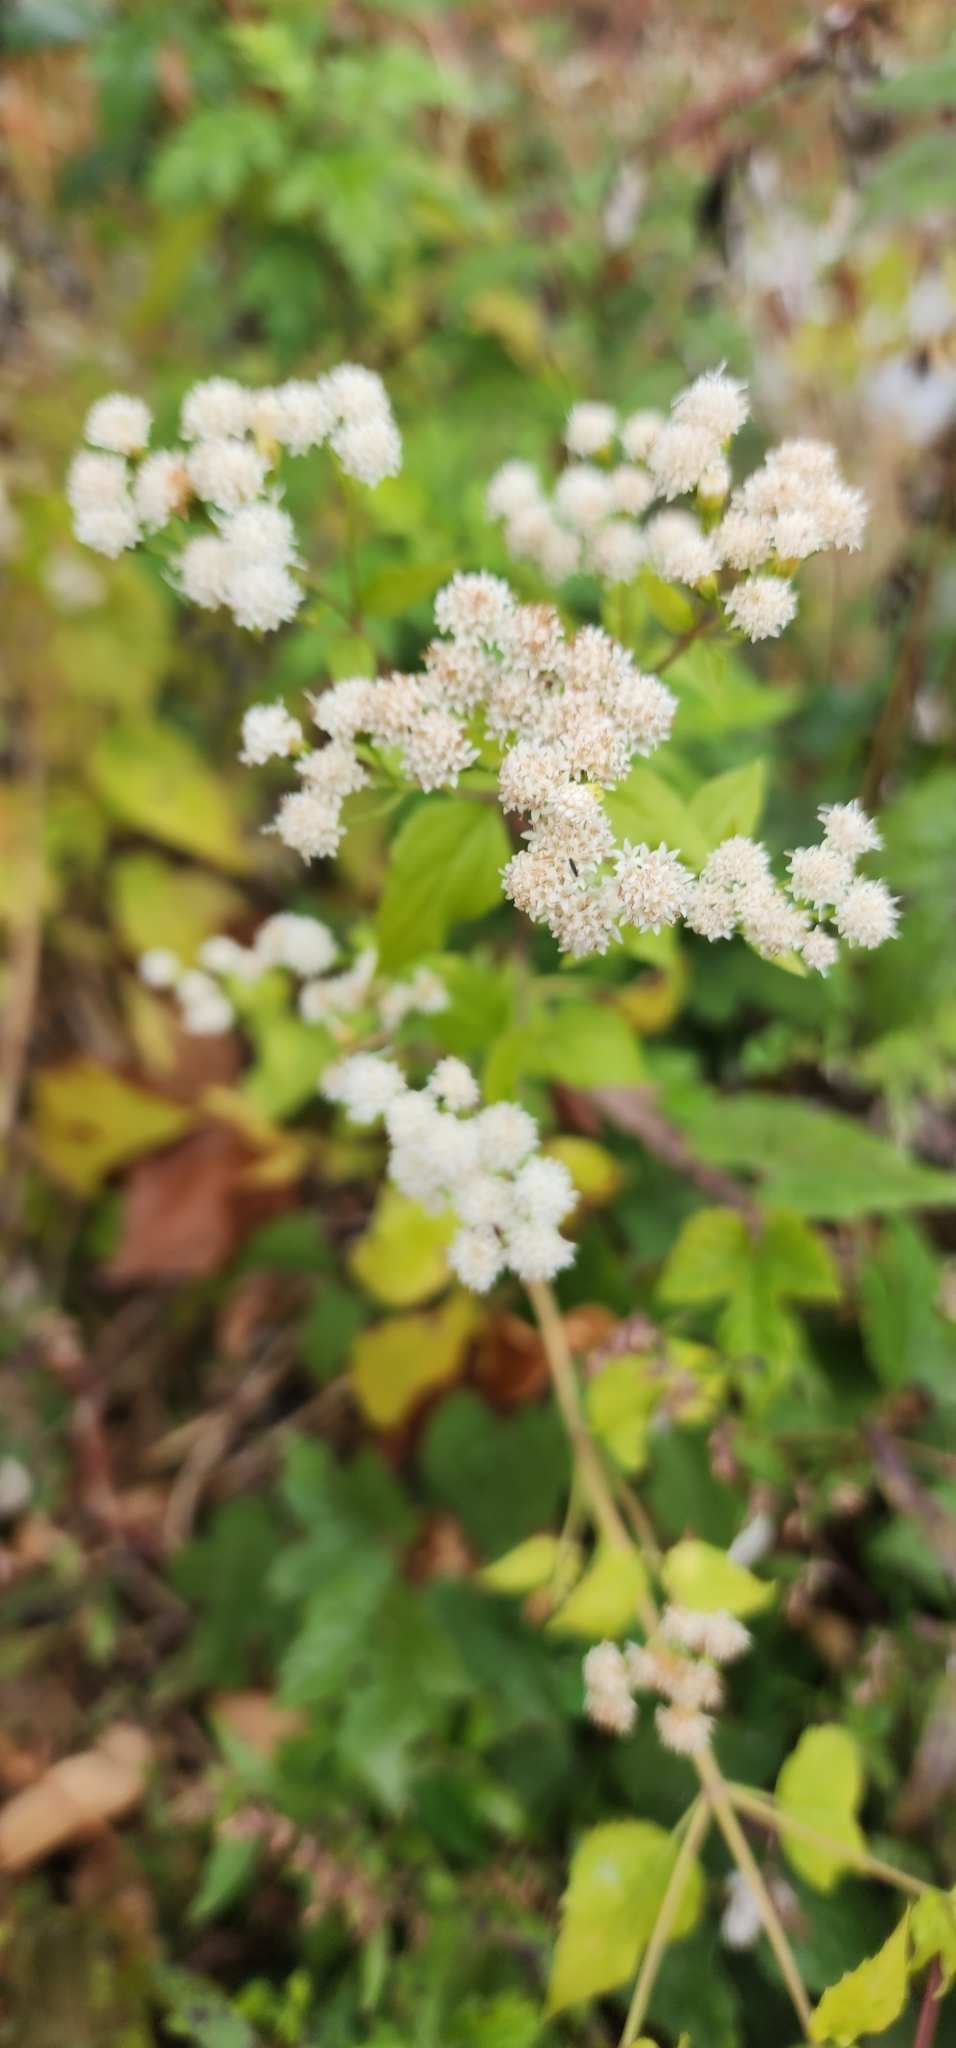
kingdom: Plantae
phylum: Tracheophyta
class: Magnoliopsida
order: Asterales
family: Asteraceae
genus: Ageratina
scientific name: Ageratina altissima
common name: White snakeroot
